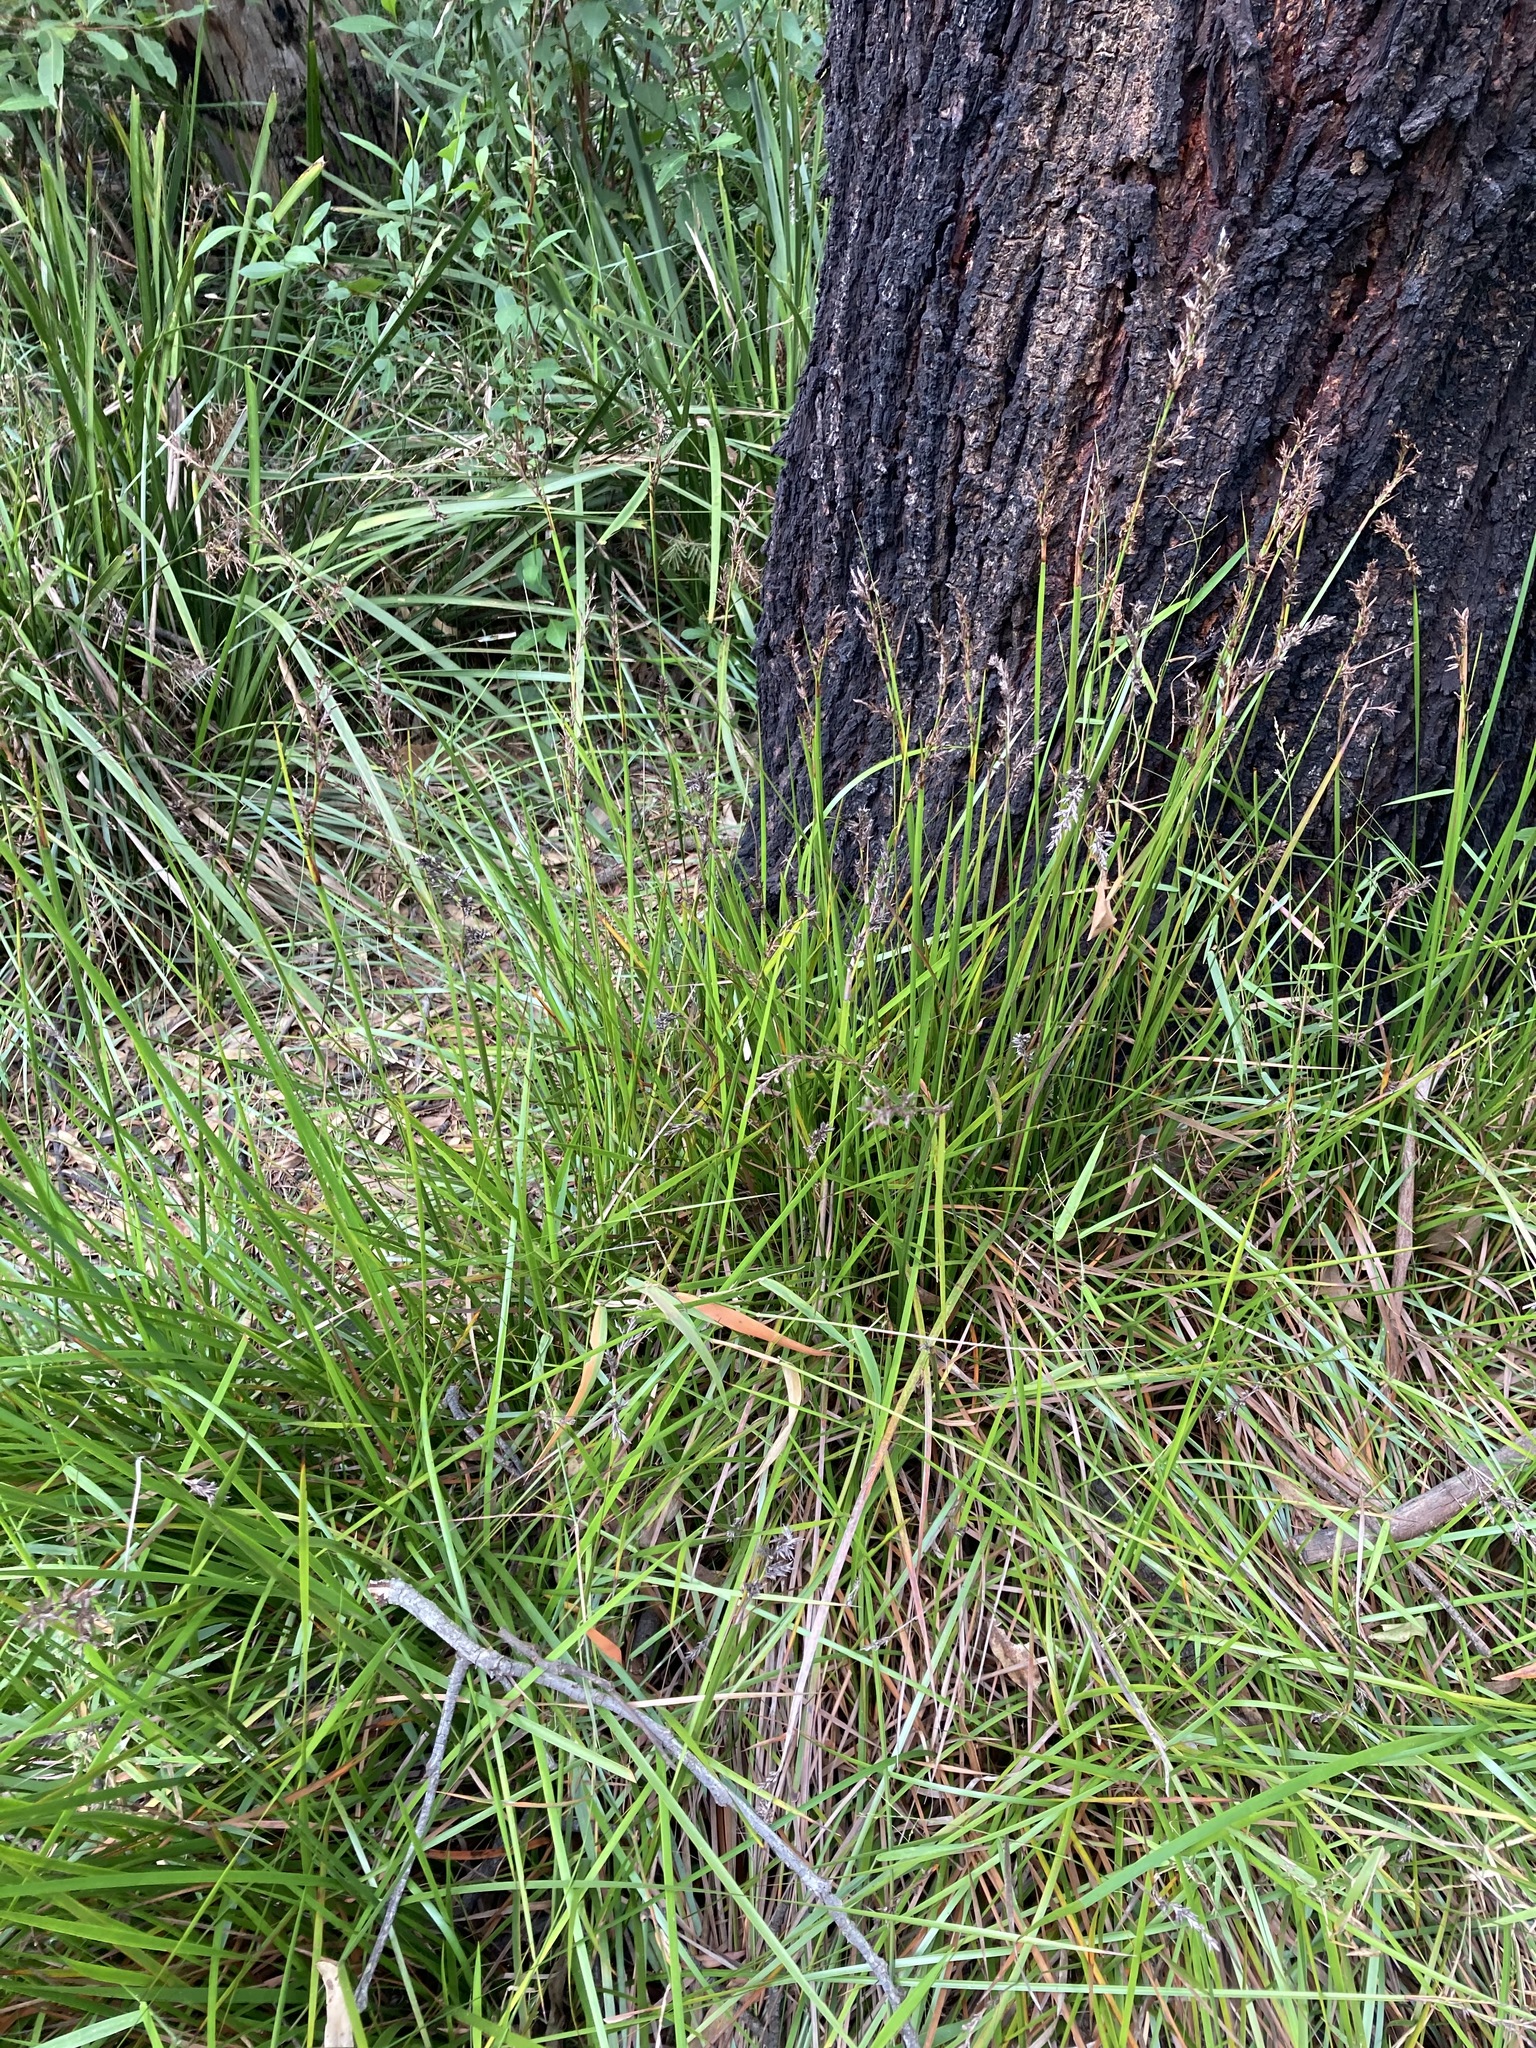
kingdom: Plantae
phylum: Tracheophyta
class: Liliopsida
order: Poales
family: Cyperaceae
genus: Lepidosperma
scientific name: Lepidosperma laterale
